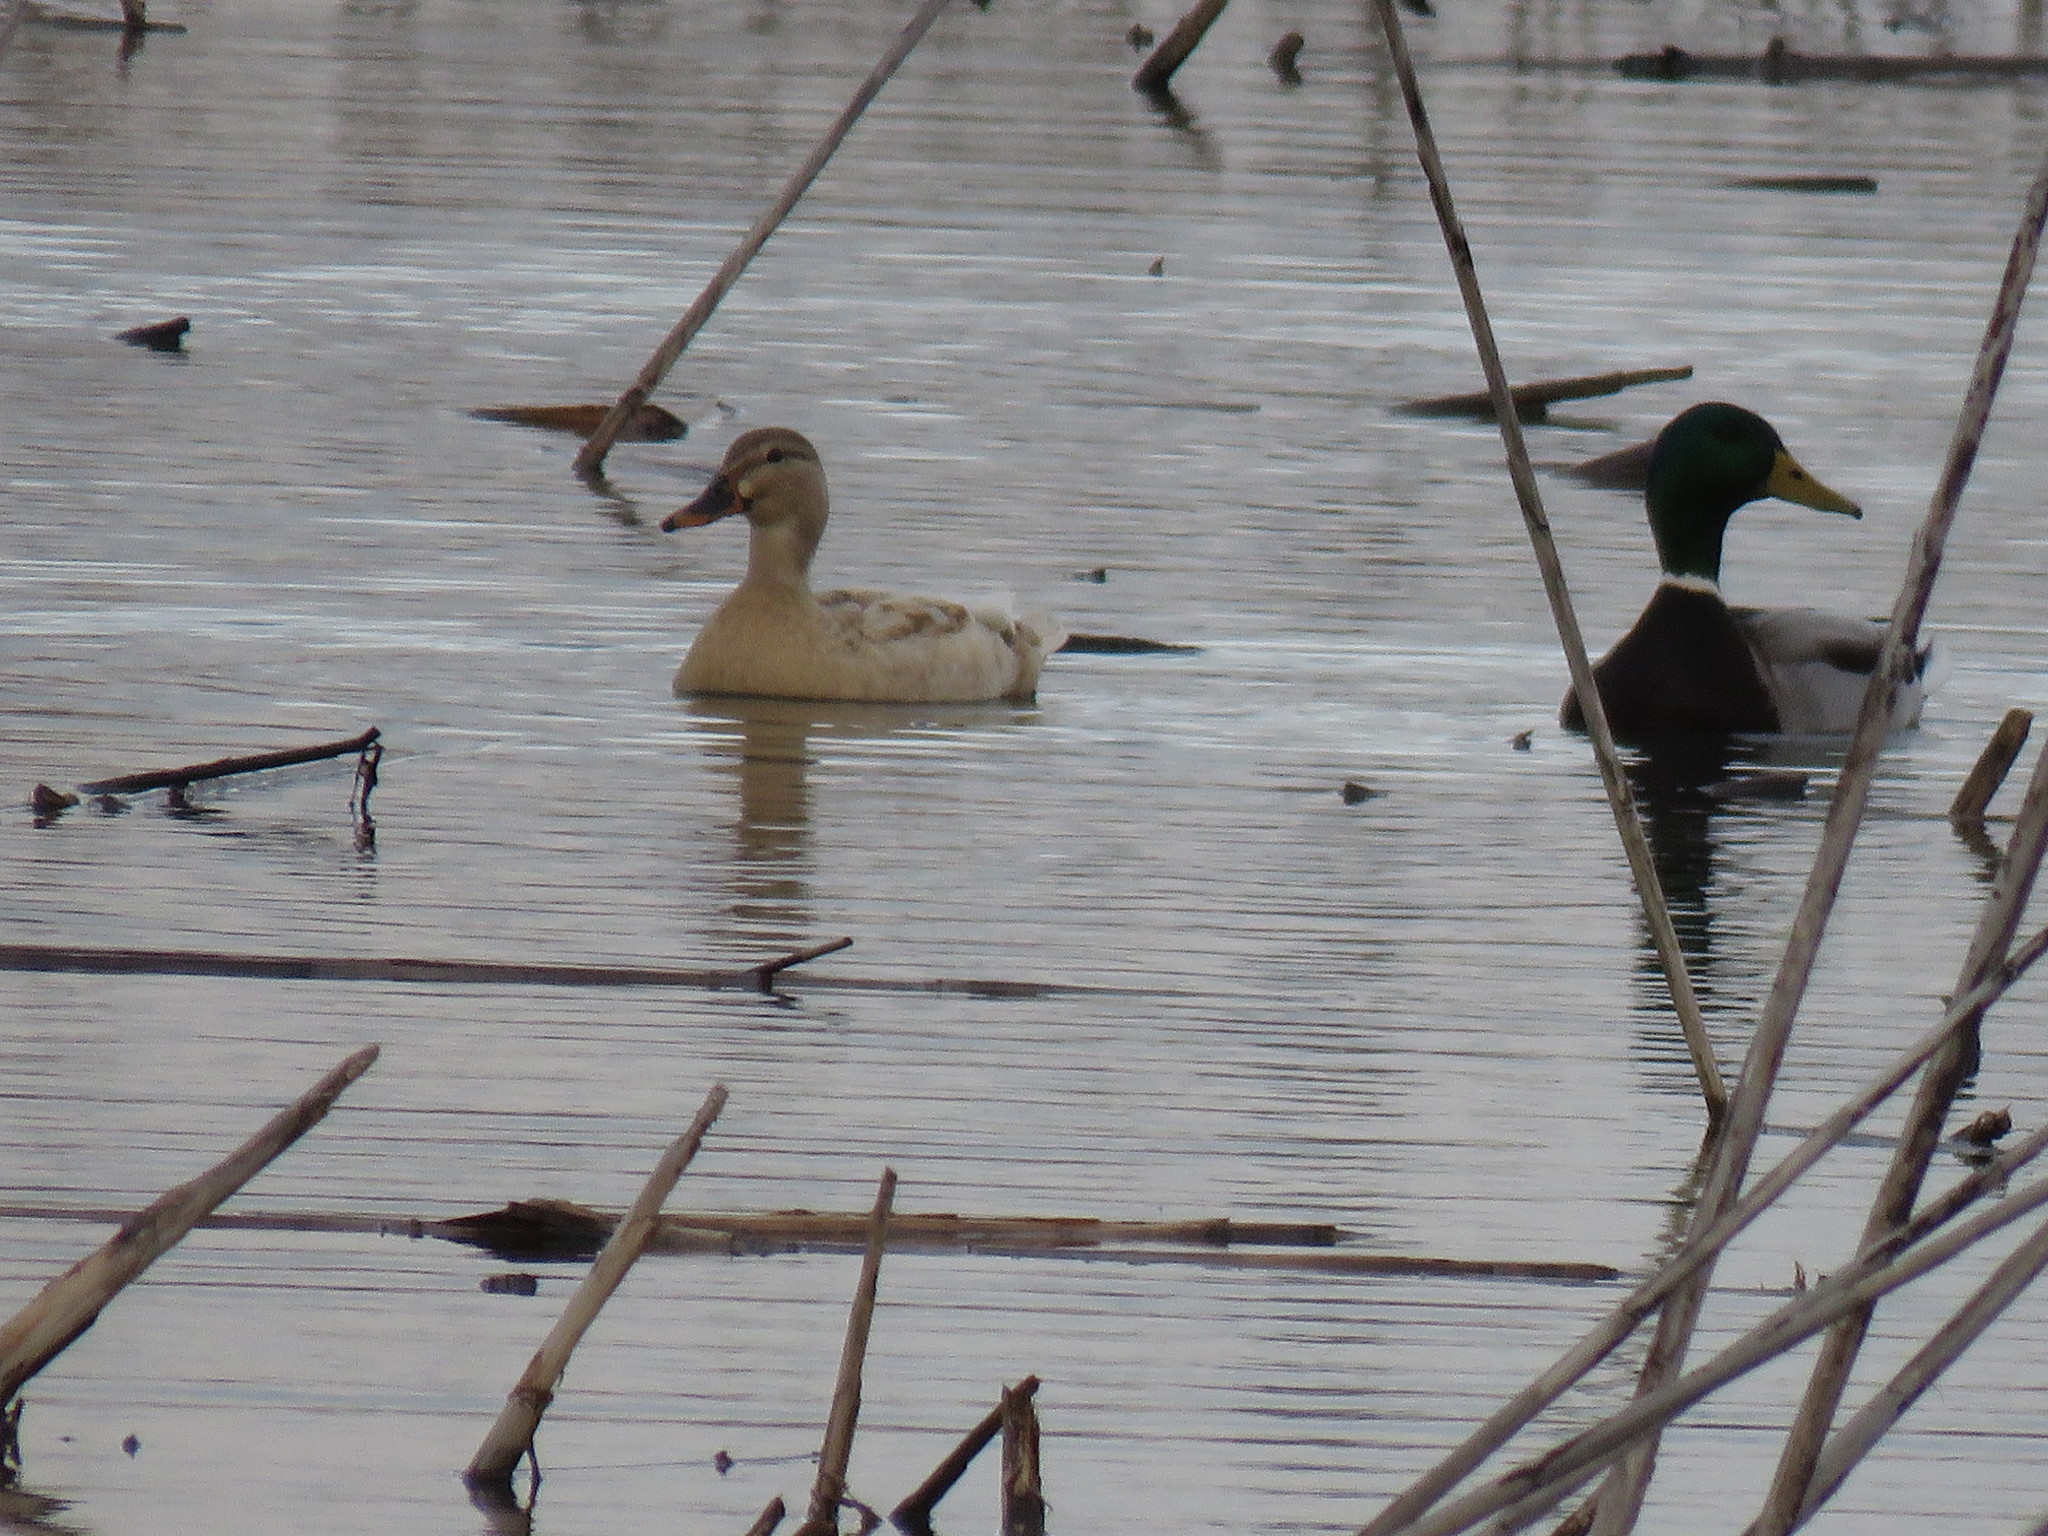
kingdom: Animalia
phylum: Chordata
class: Aves
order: Anseriformes
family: Anatidae
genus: Anas
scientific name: Anas platyrhynchos
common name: Mallard
